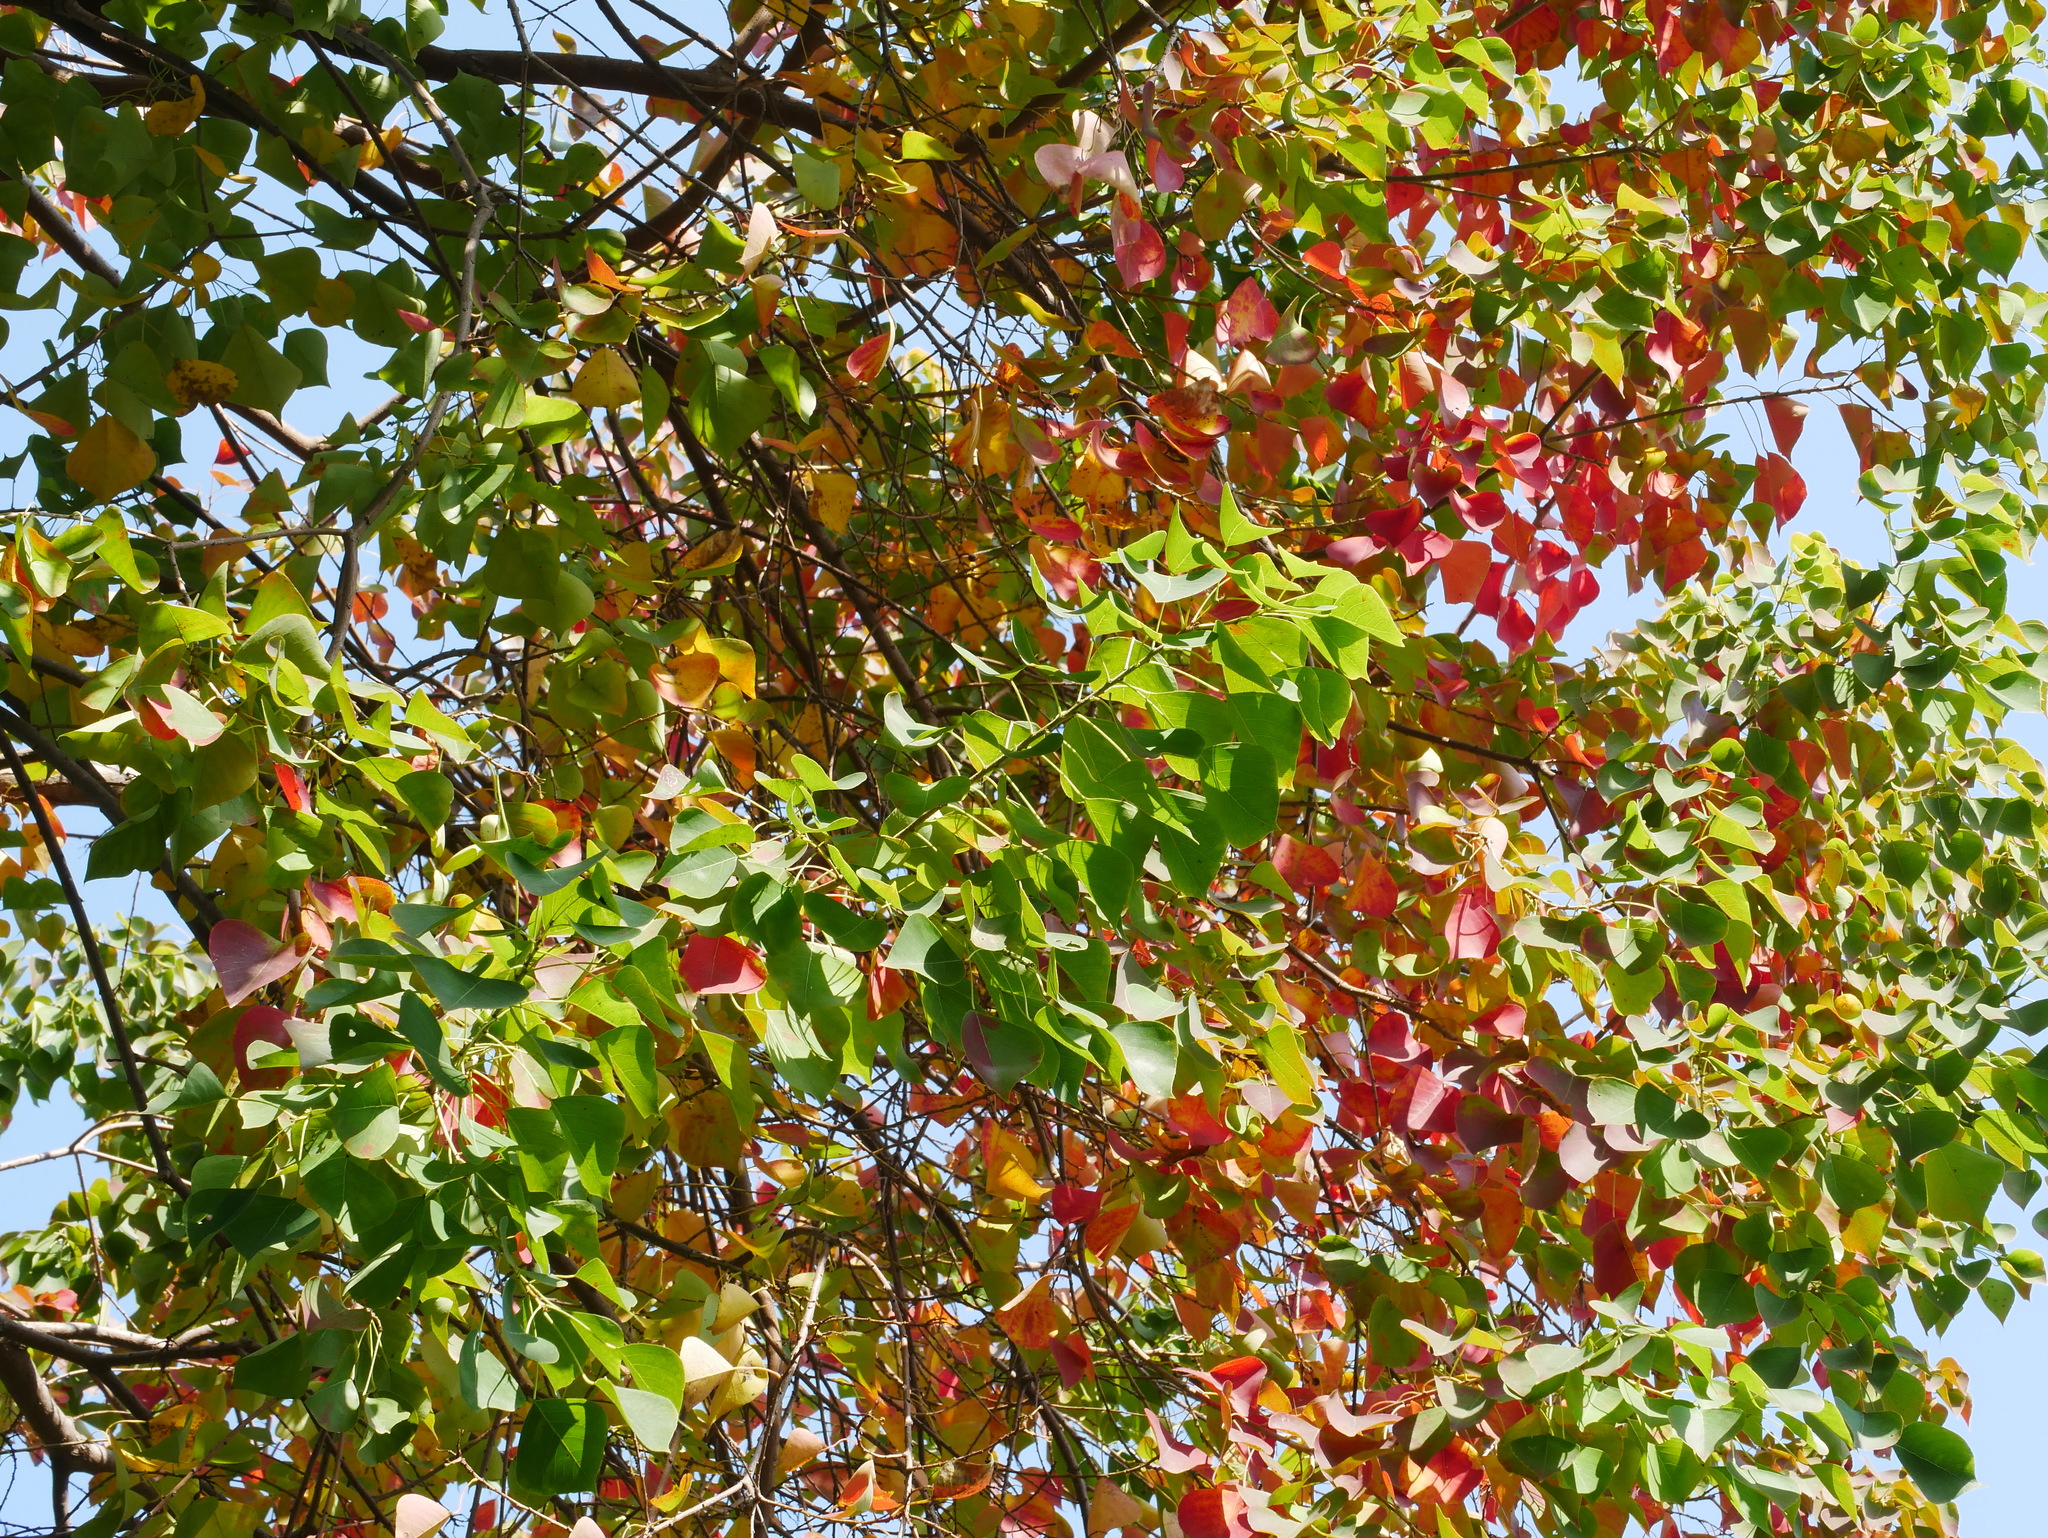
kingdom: Plantae
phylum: Tracheophyta
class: Magnoliopsida
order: Malpighiales
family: Euphorbiaceae
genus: Triadica
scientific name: Triadica sebifera
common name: Chinese tallow
